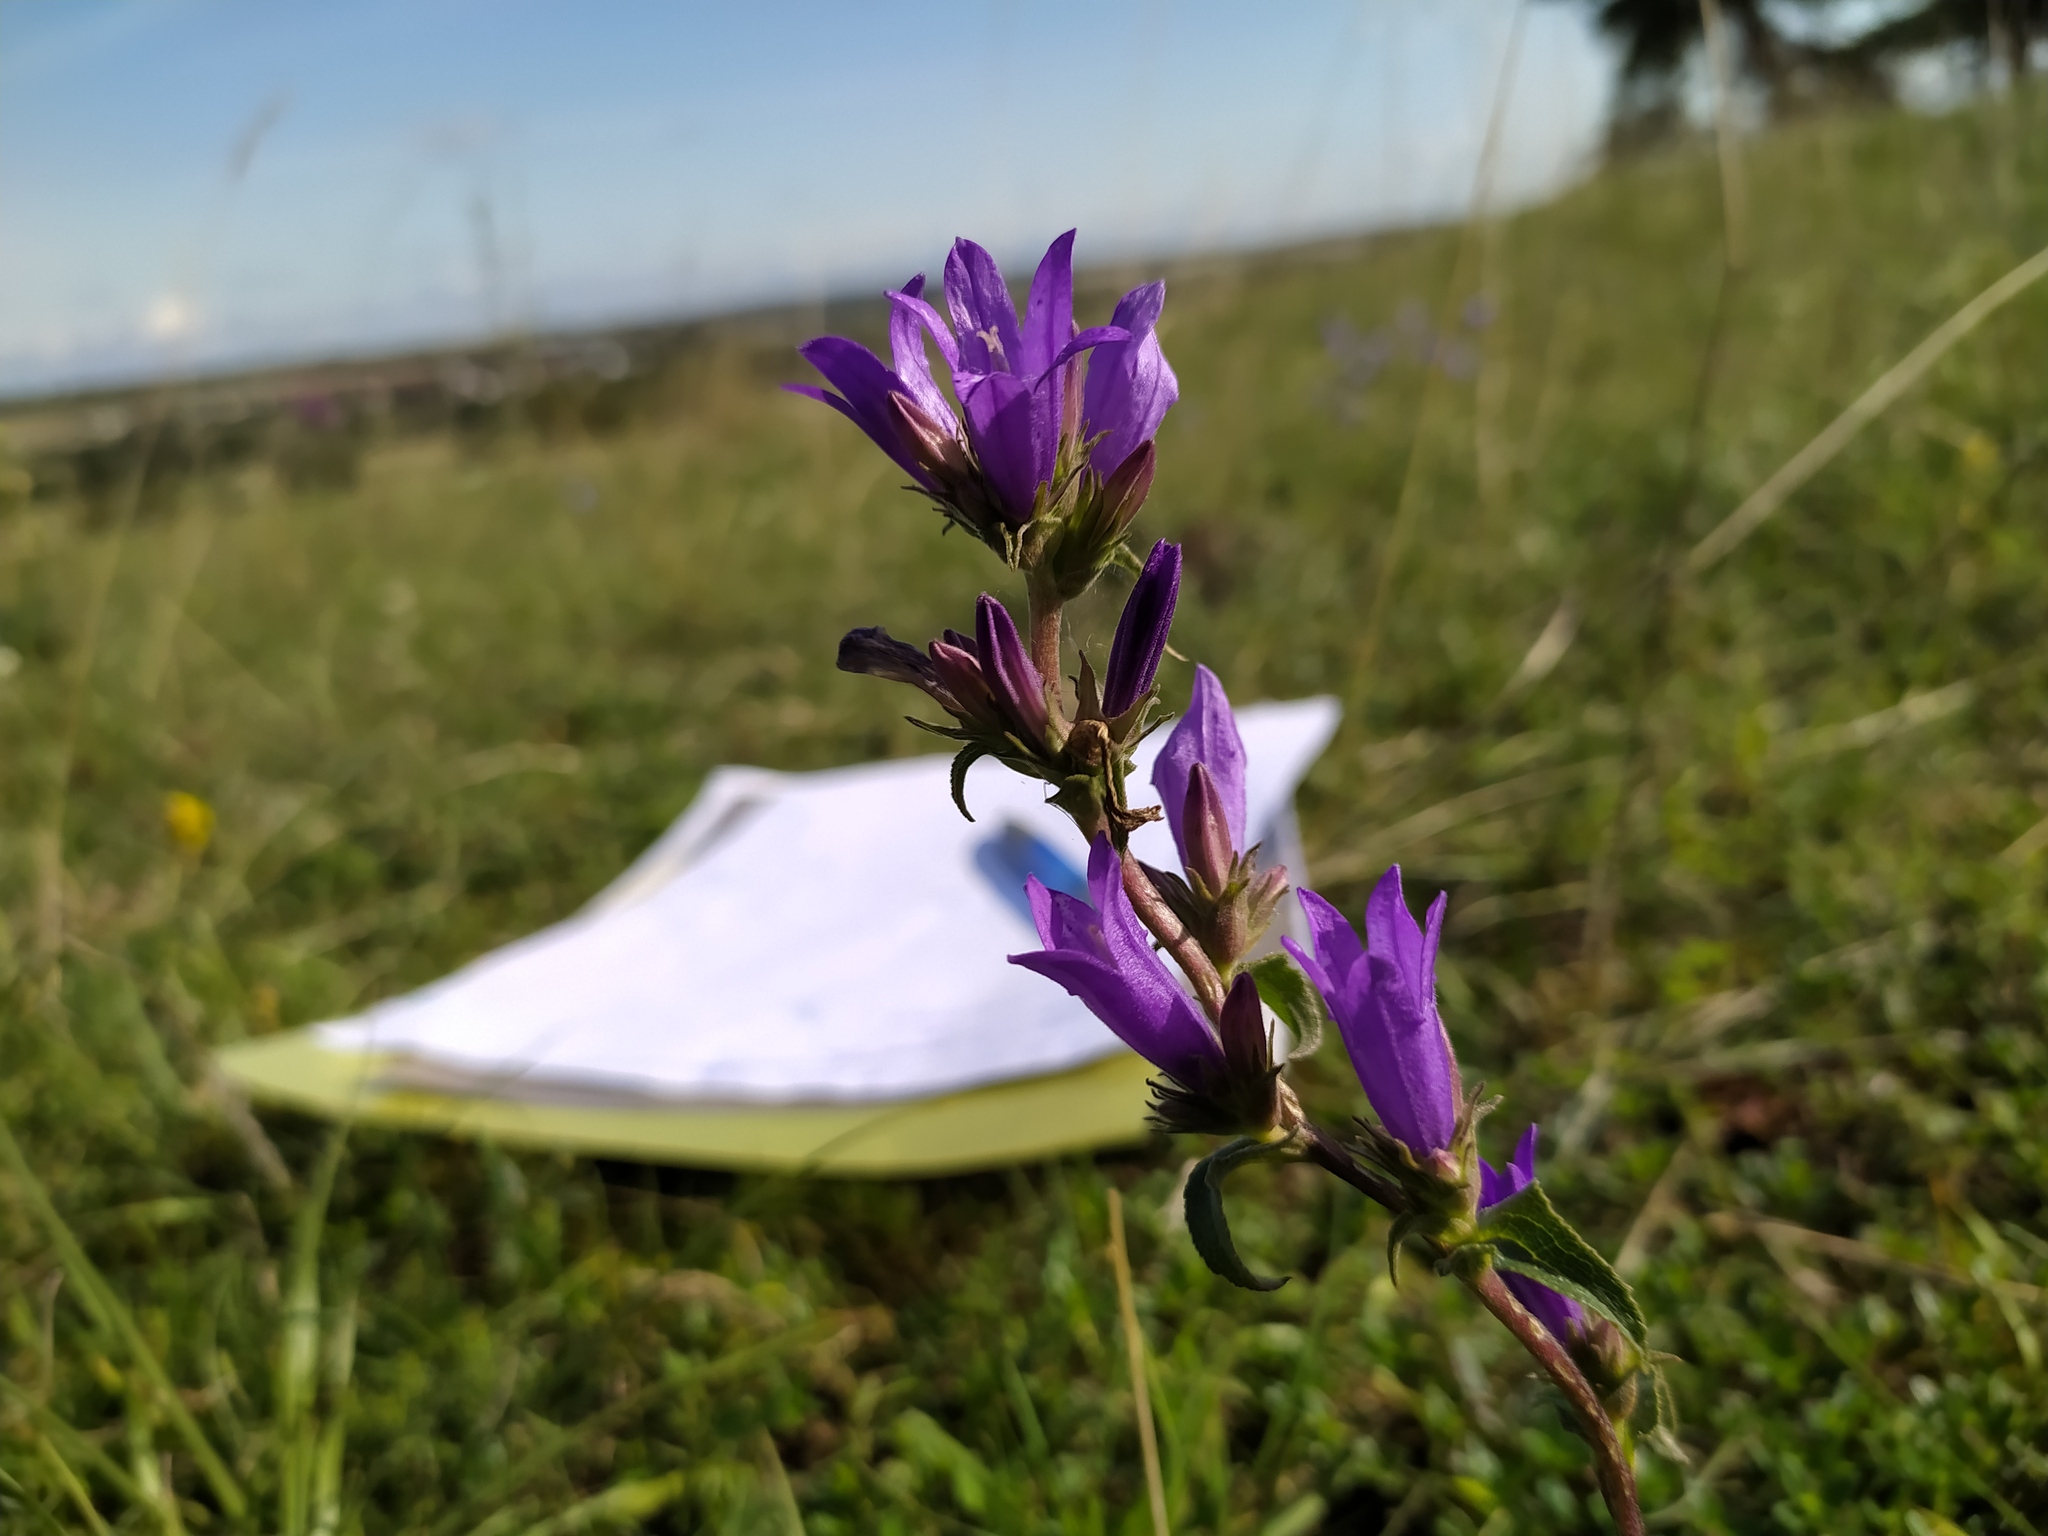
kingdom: Plantae
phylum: Tracheophyta
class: Magnoliopsida
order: Asterales
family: Campanulaceae
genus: Campanula
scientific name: Campanula glomerata
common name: Clustered bellflower
